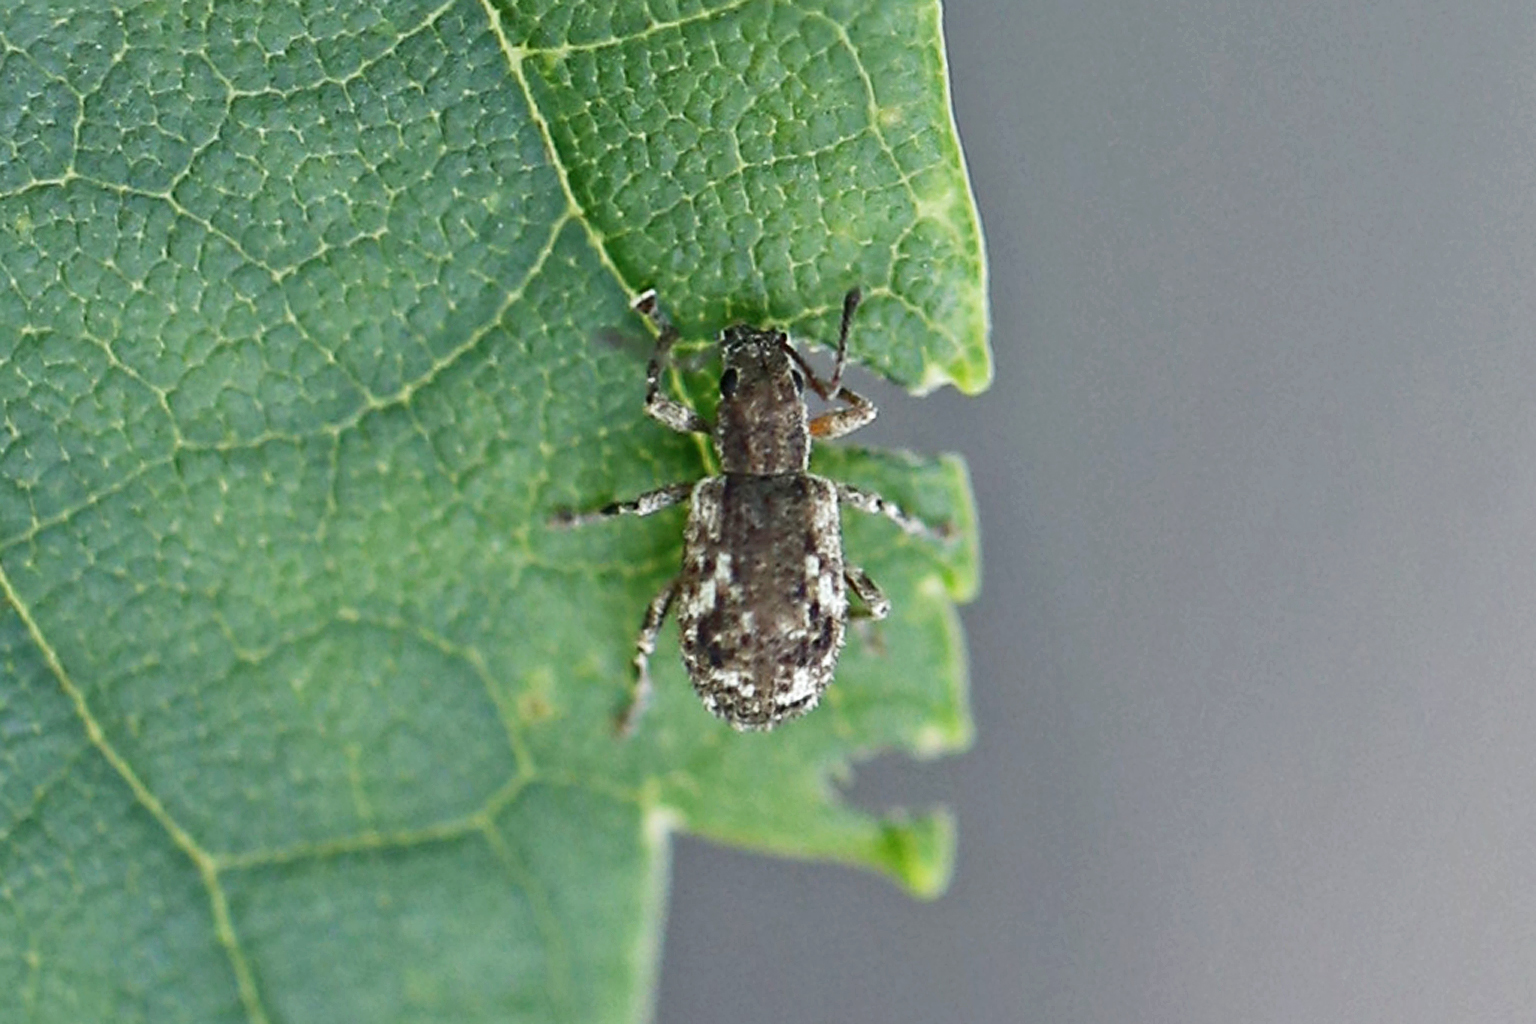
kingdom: Animalia
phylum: Arthropoda
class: Insecta
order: Coleoptera
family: Curculionidae
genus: Pseudoedophrys
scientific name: Pseudoedophrys hilleri
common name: Weevil
